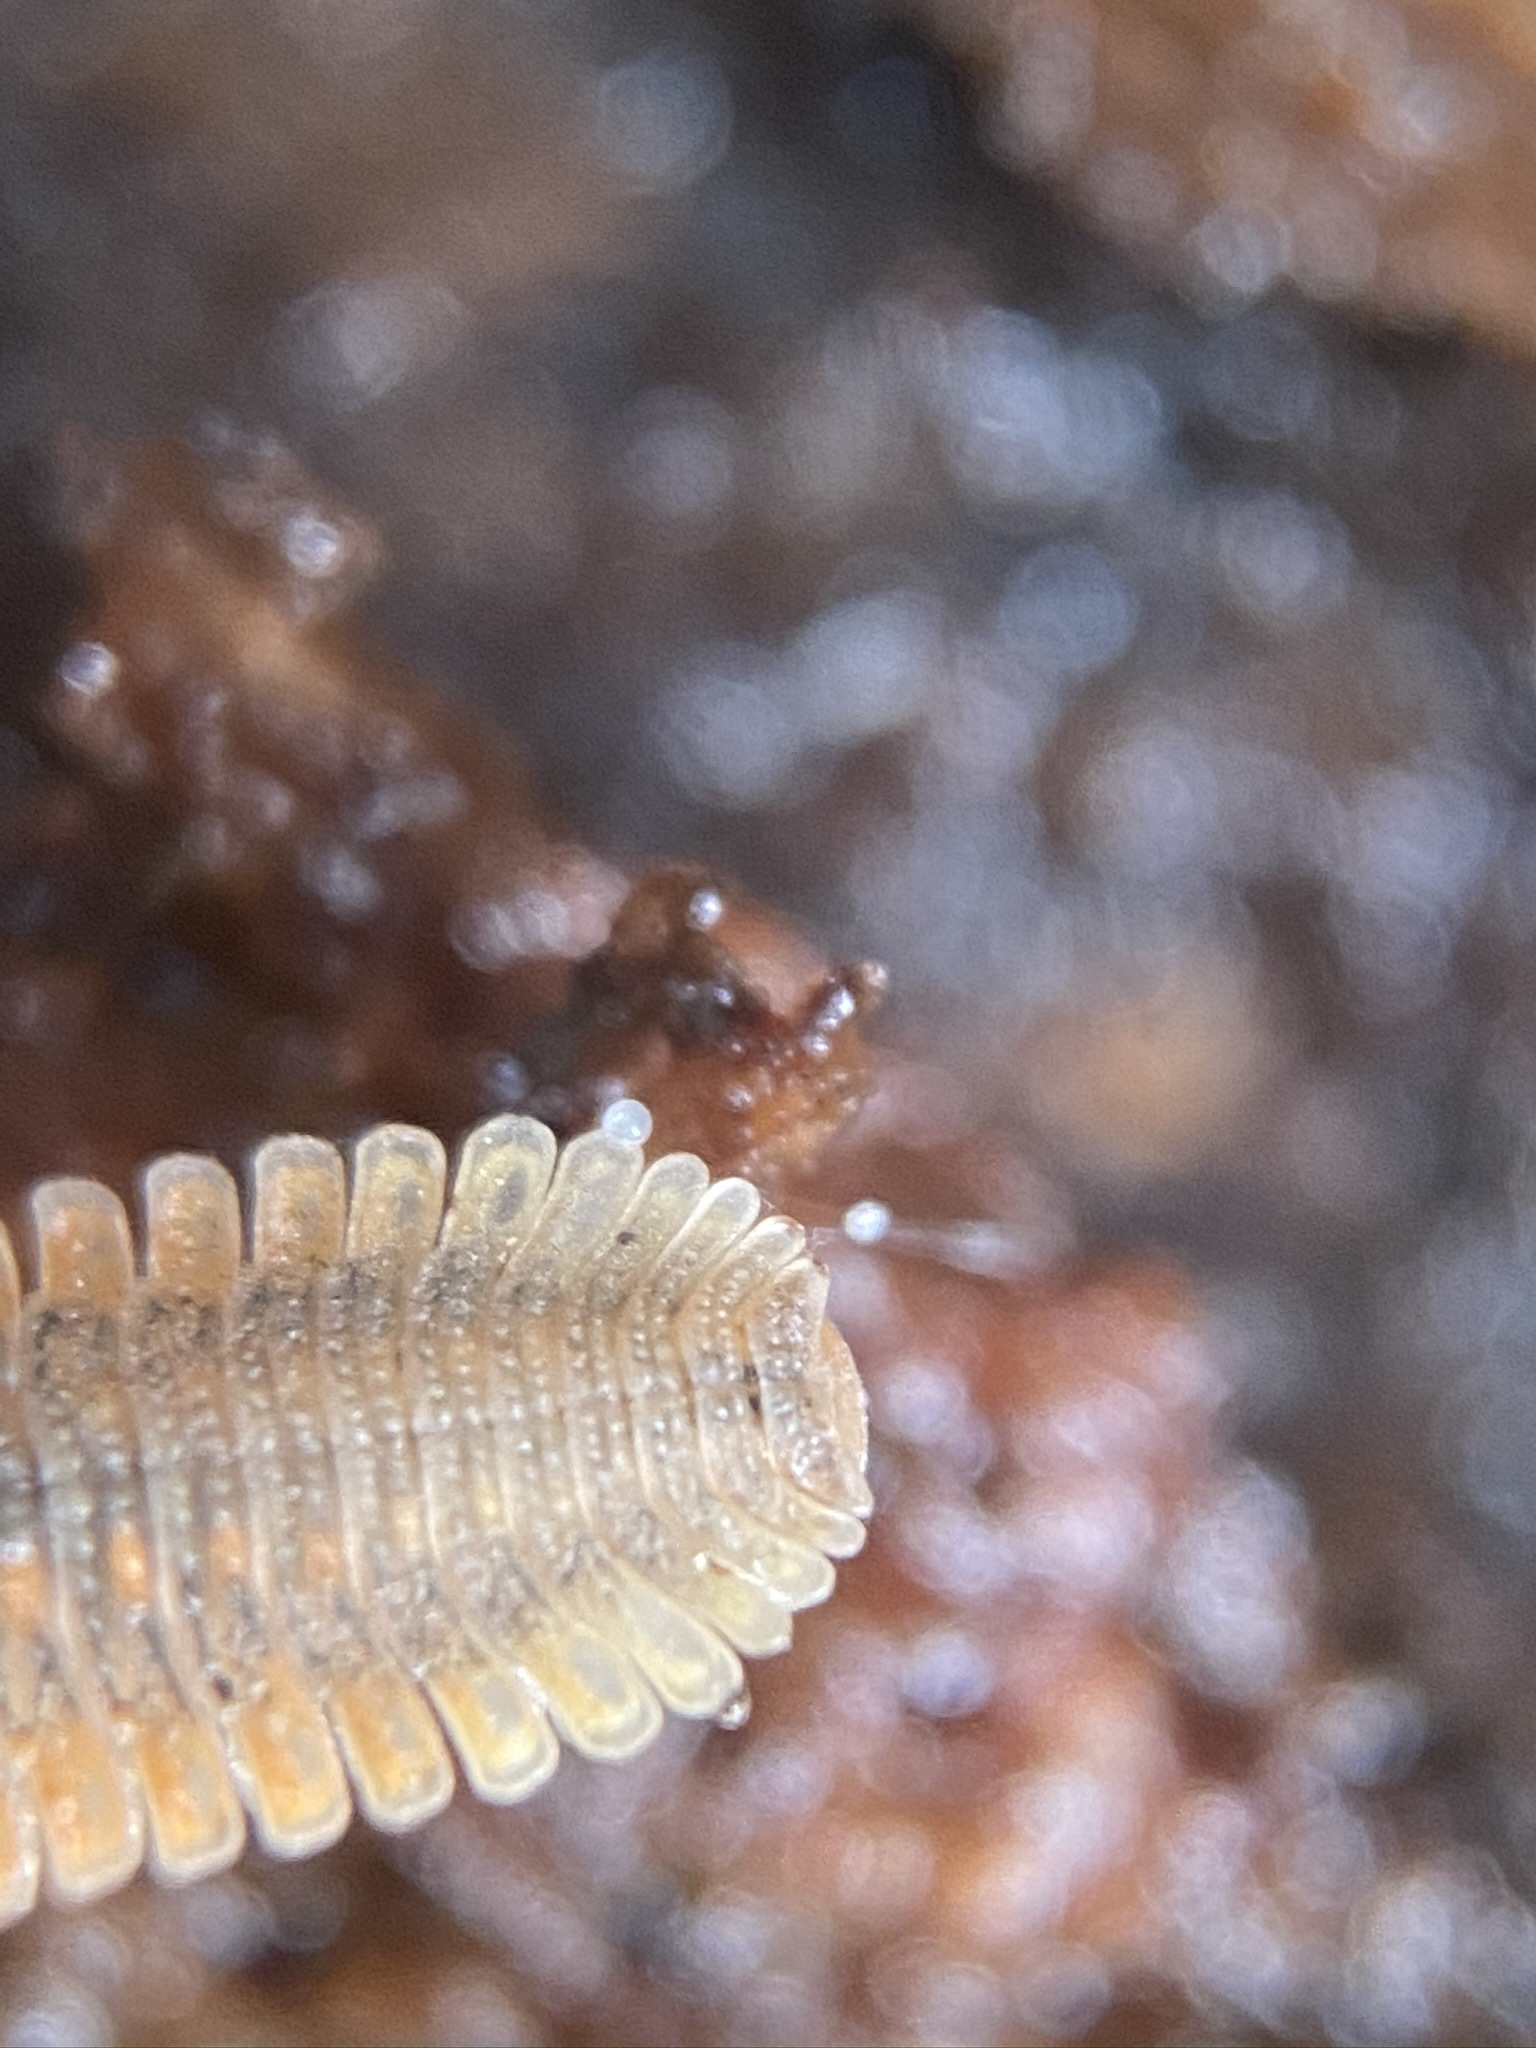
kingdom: Animalia
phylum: Arthropoda
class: Diplopoda
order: Platydesmida
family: Andrognathidae
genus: Brachycybe
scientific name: Brachycybe producta
